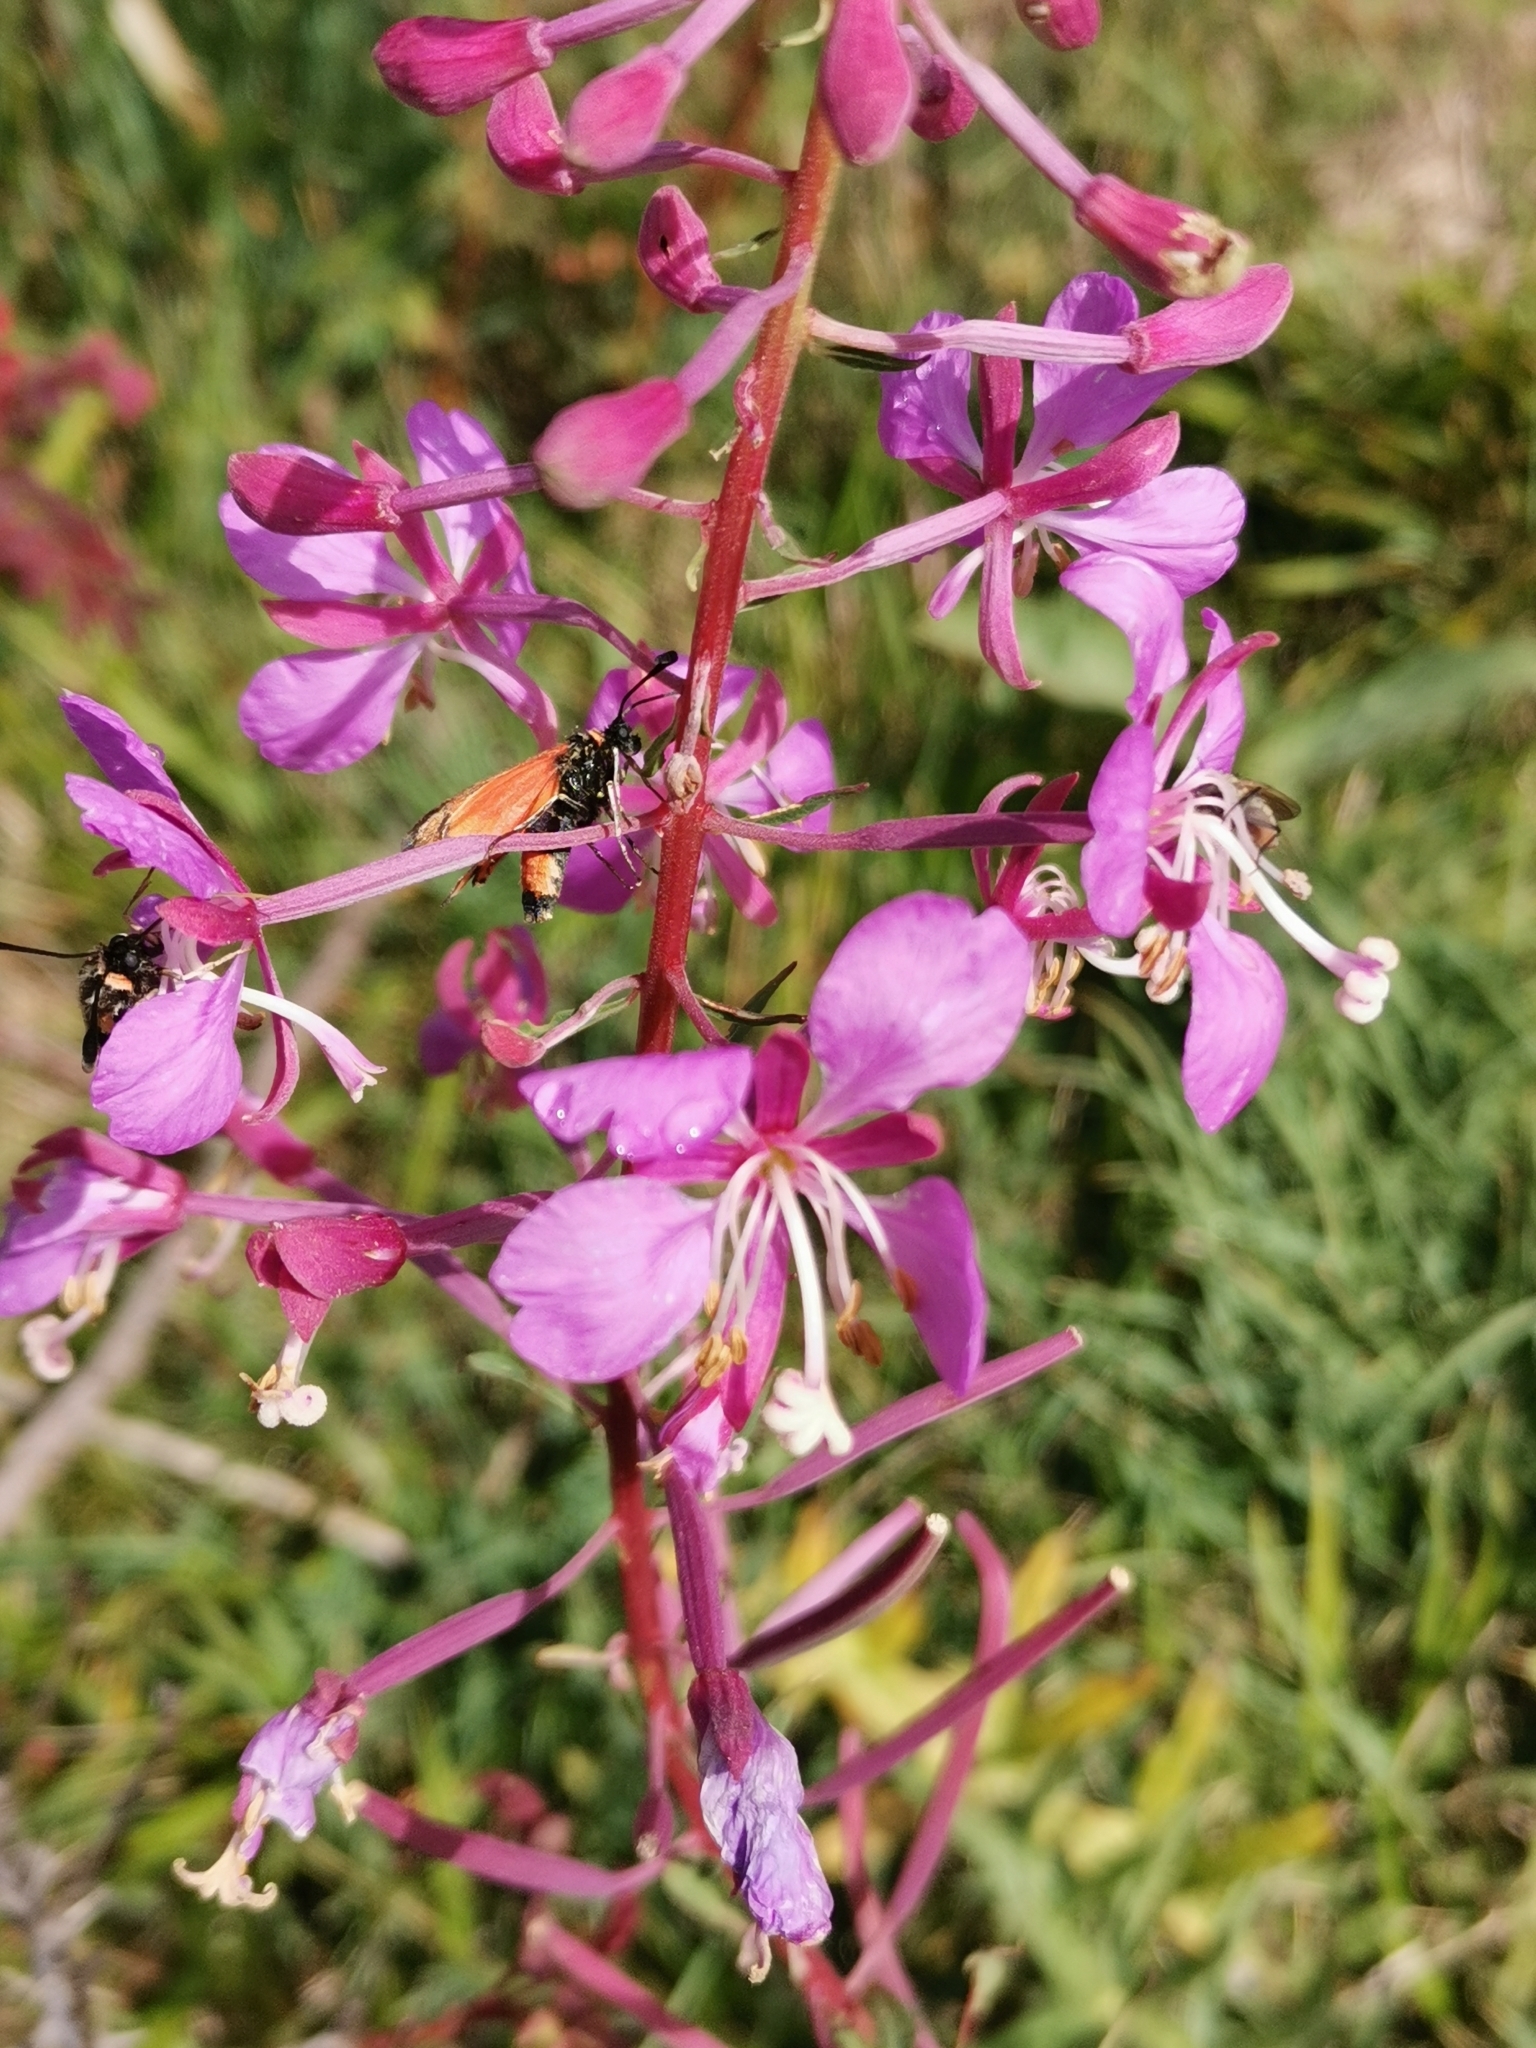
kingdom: Plantae
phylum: Tracheophyta
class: Magnoliopsida
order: Myrtales
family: Onagraceae
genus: Chamaenerion
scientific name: Chamaenerion angustifolium
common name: Fireweed
